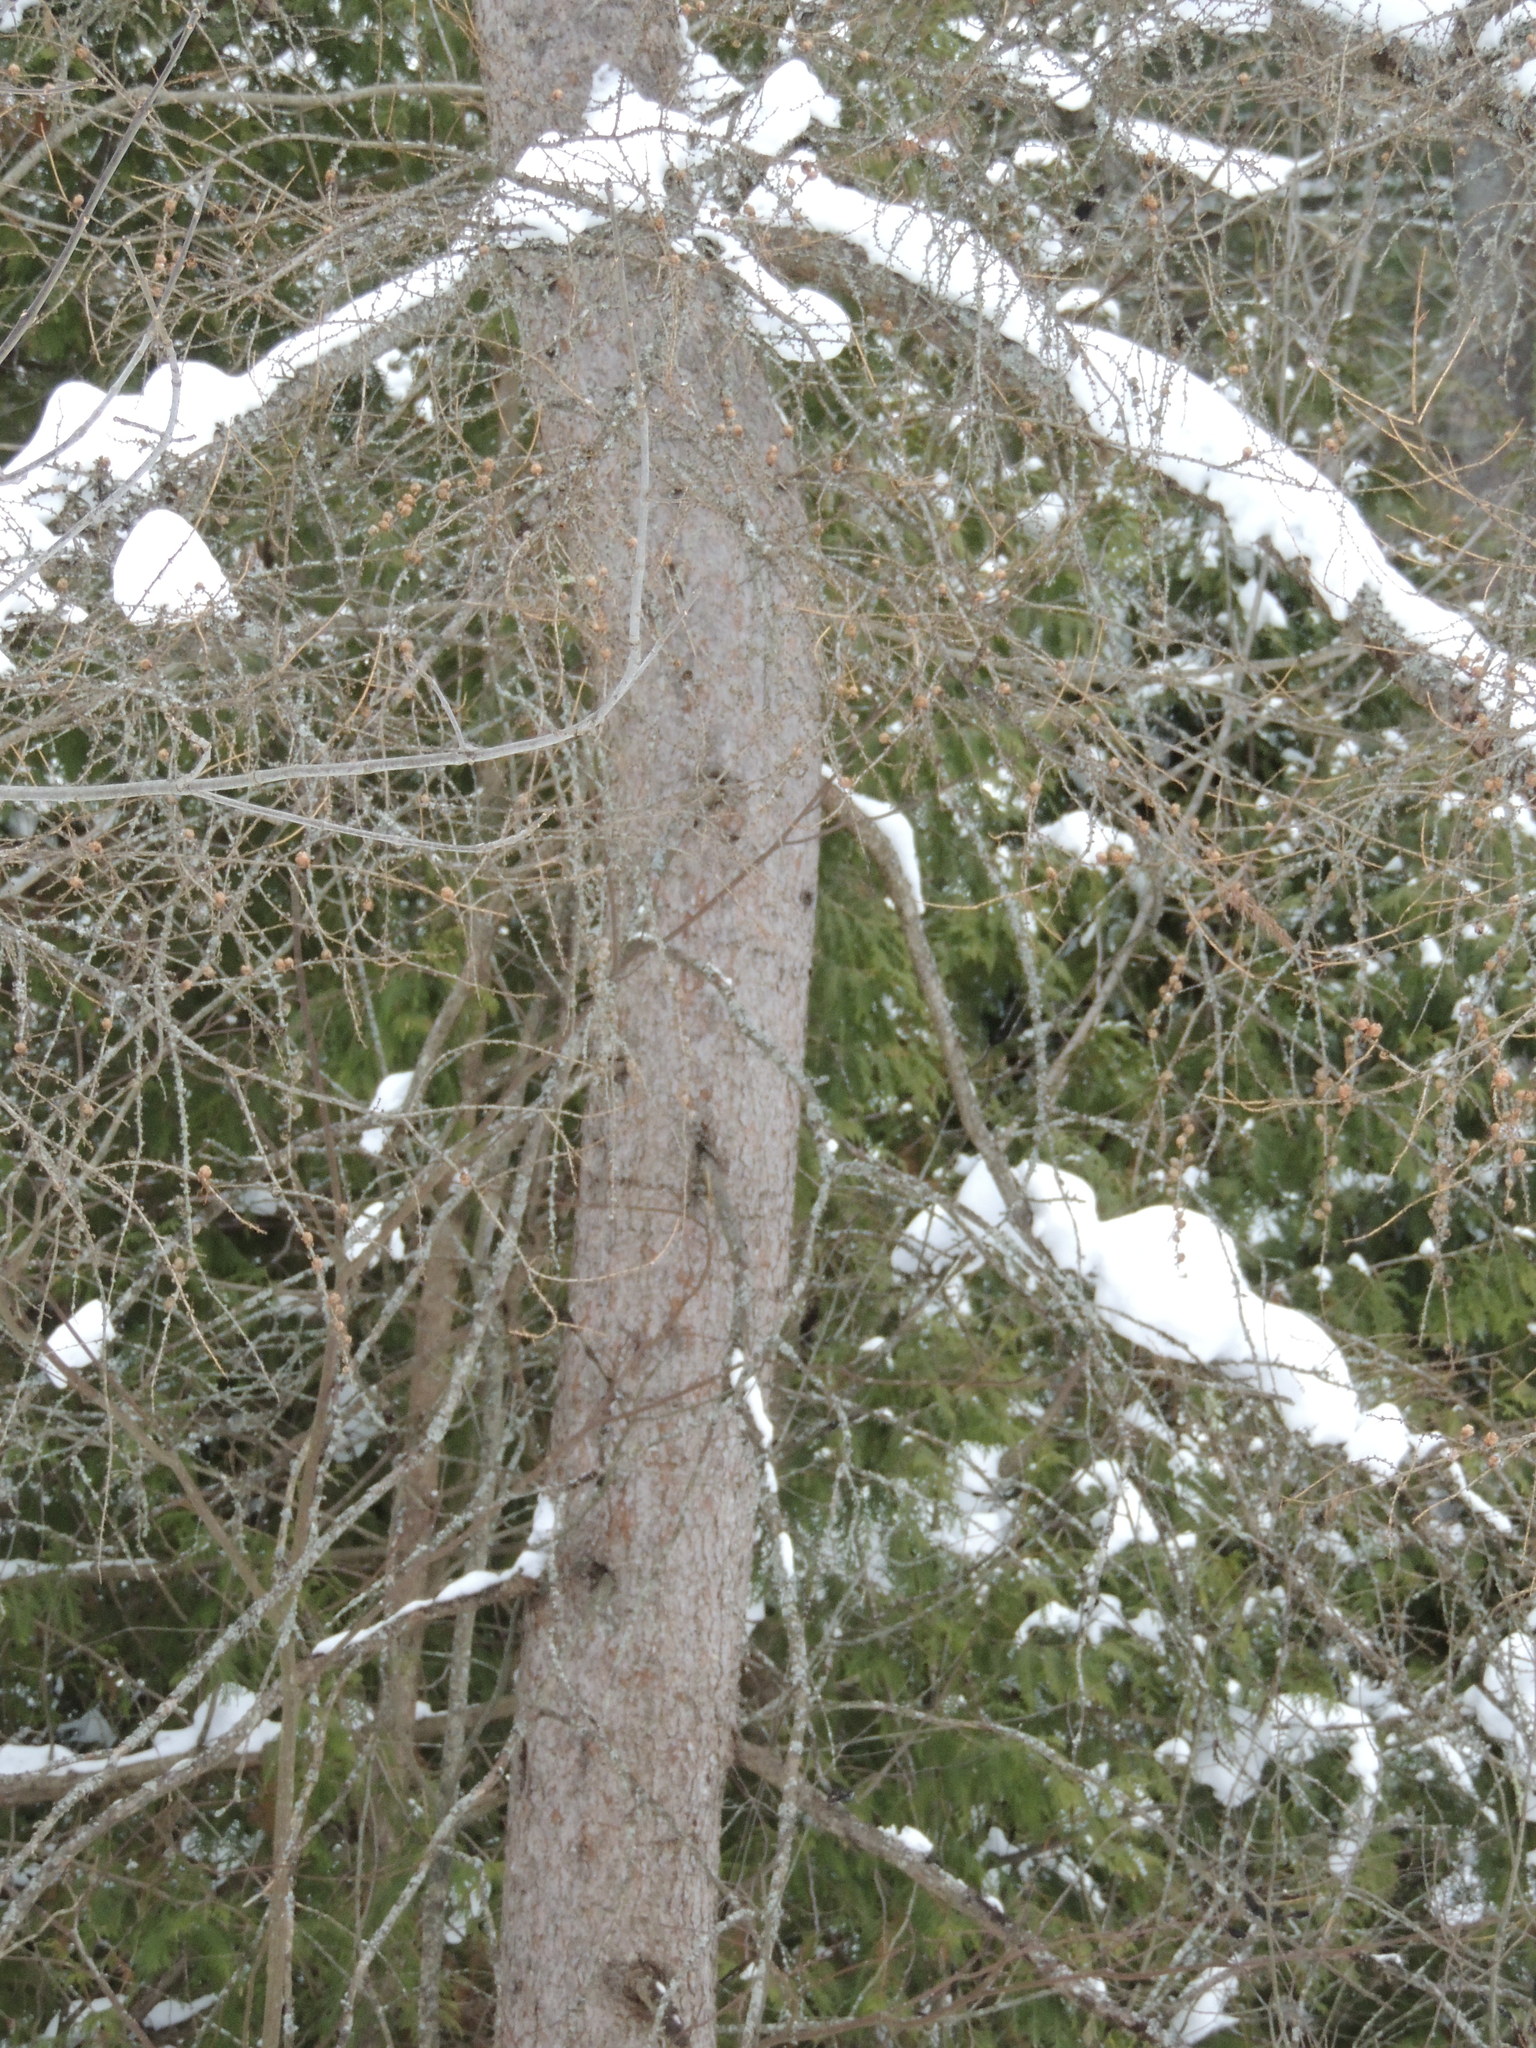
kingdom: Plantae
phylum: Tracheophyta
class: Pinopsida
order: Pinales
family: Pinaceae
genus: Larix
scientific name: Larix laricina
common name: American larch
